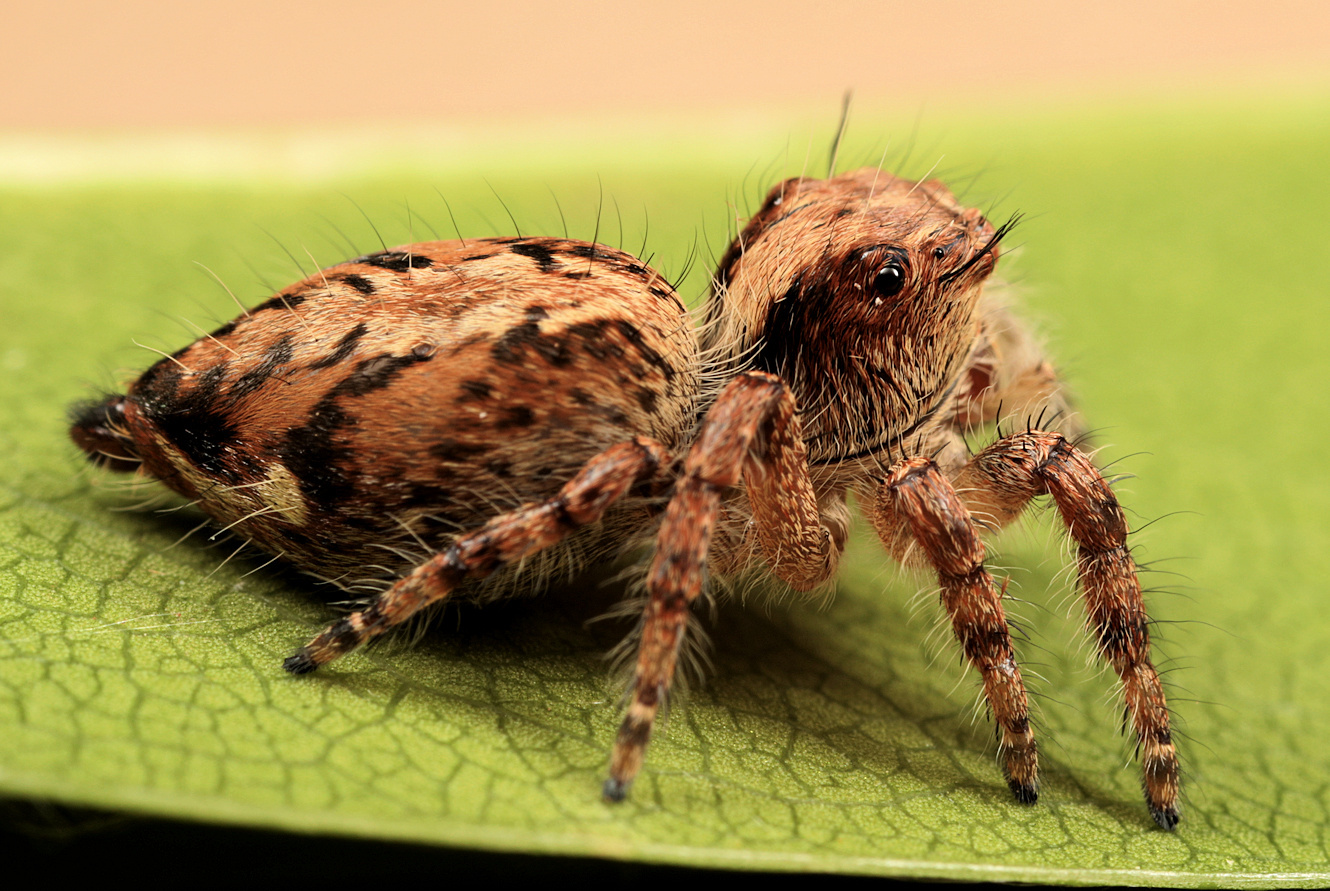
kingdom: Animalia
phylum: Arthropoda
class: Arachnida
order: Araneae
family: Salticidae
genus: Hyllus
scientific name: Hyllus treleaveni
